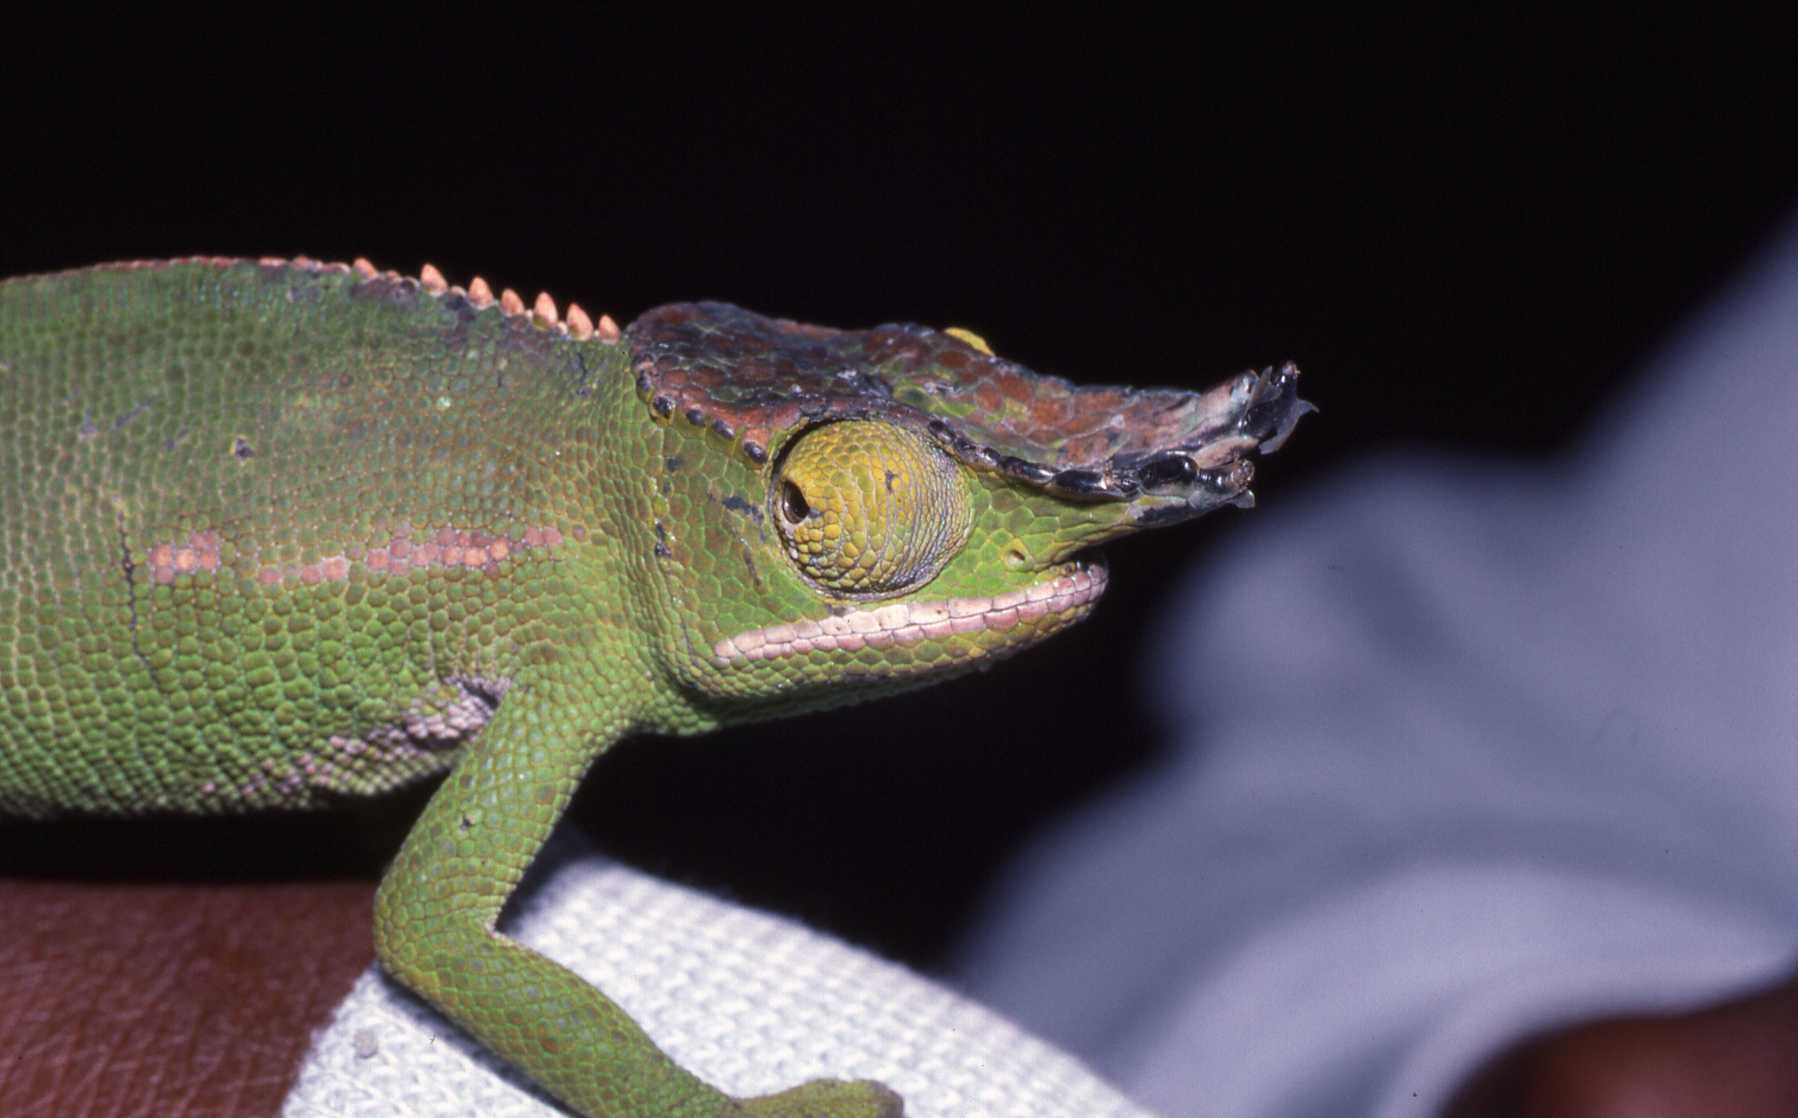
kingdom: Animalia
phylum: Chordata
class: Squamata
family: Chamaeleonidae
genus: Furcifer
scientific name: Furcifer willsii
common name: Wills’ chameleon
